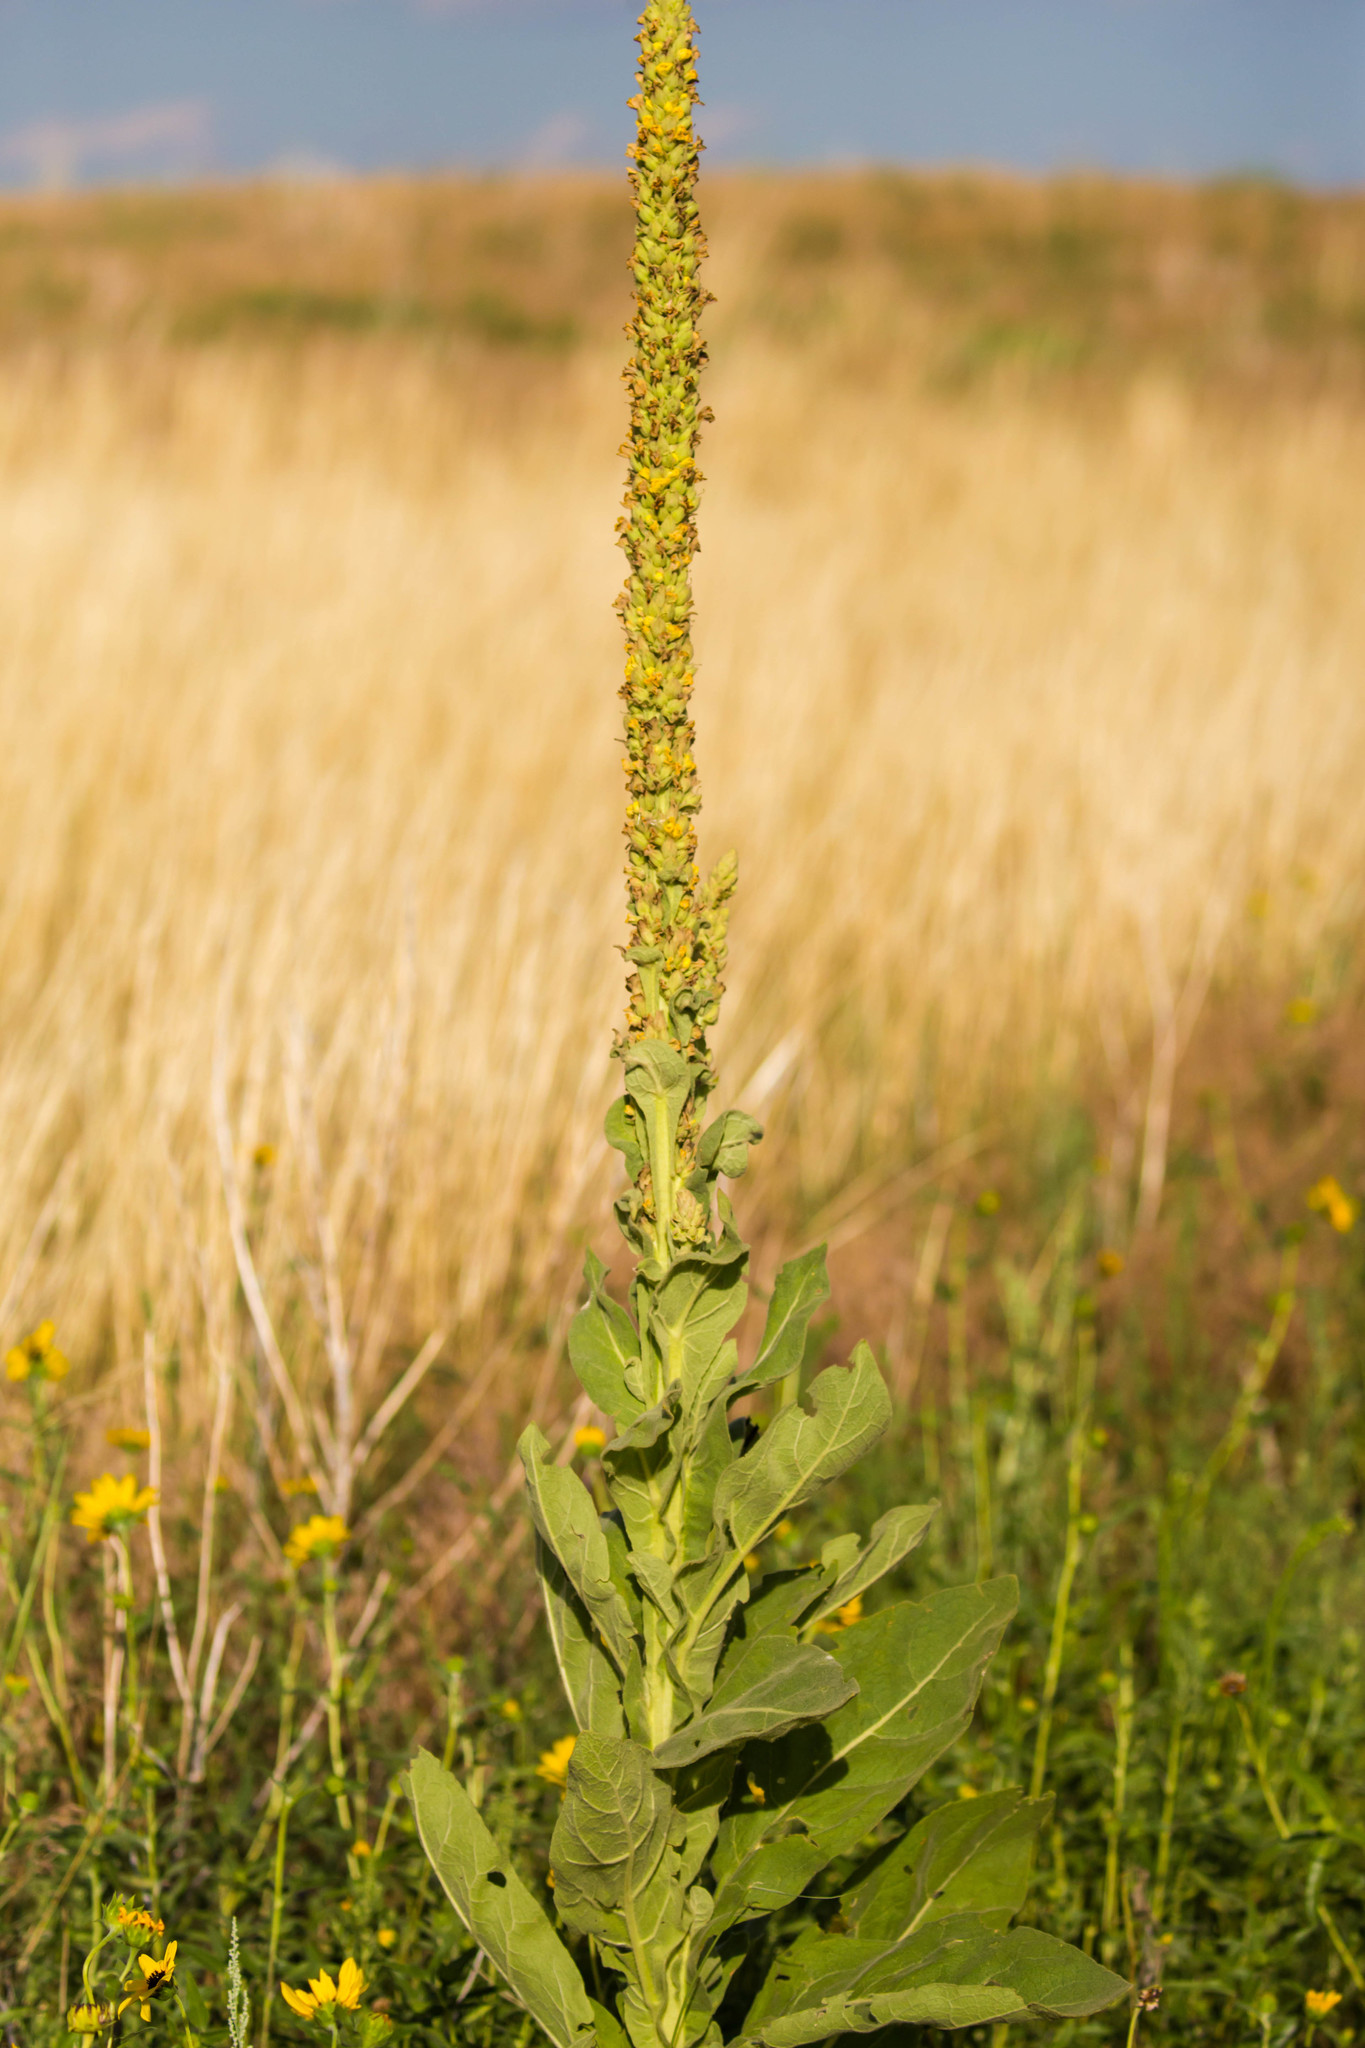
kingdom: Plantae
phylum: Tracheophyta
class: Magnoliopsida
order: Lamiales
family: Scrophulariaceae
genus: Verbascum
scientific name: Verbascum thapsus
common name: Common mullein
